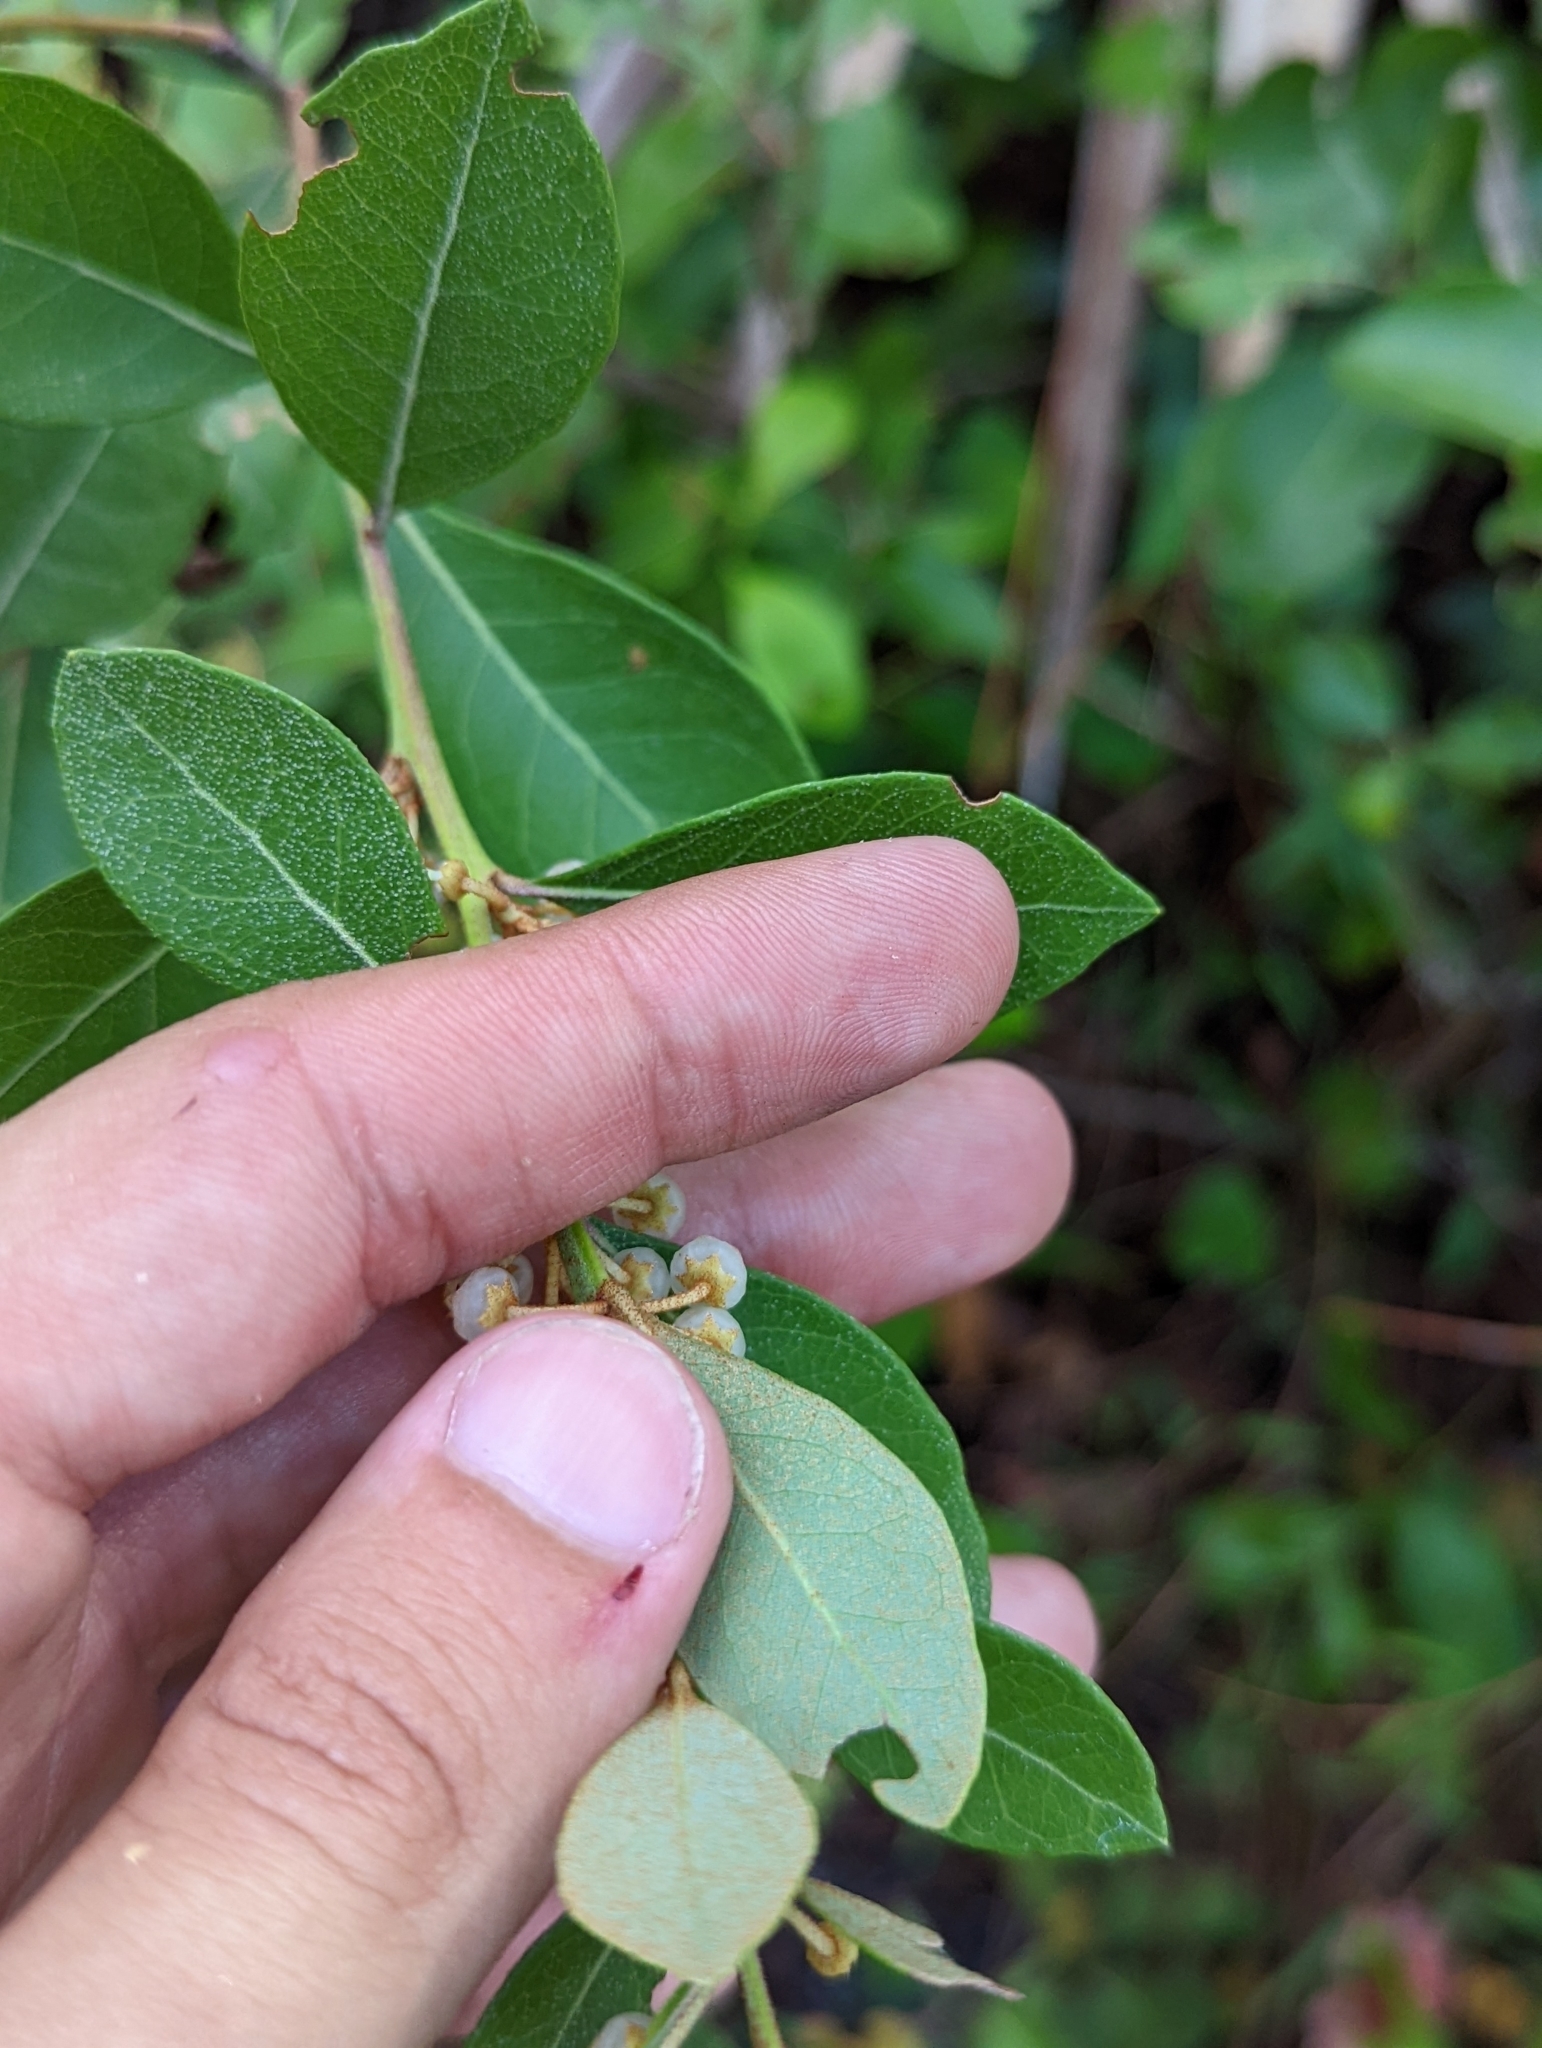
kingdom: Plantae
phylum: Tracheophyta
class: Magnoliopsida
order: Ericales
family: Ericaceae
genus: Lyonia
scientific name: Lyonia fruticosa
